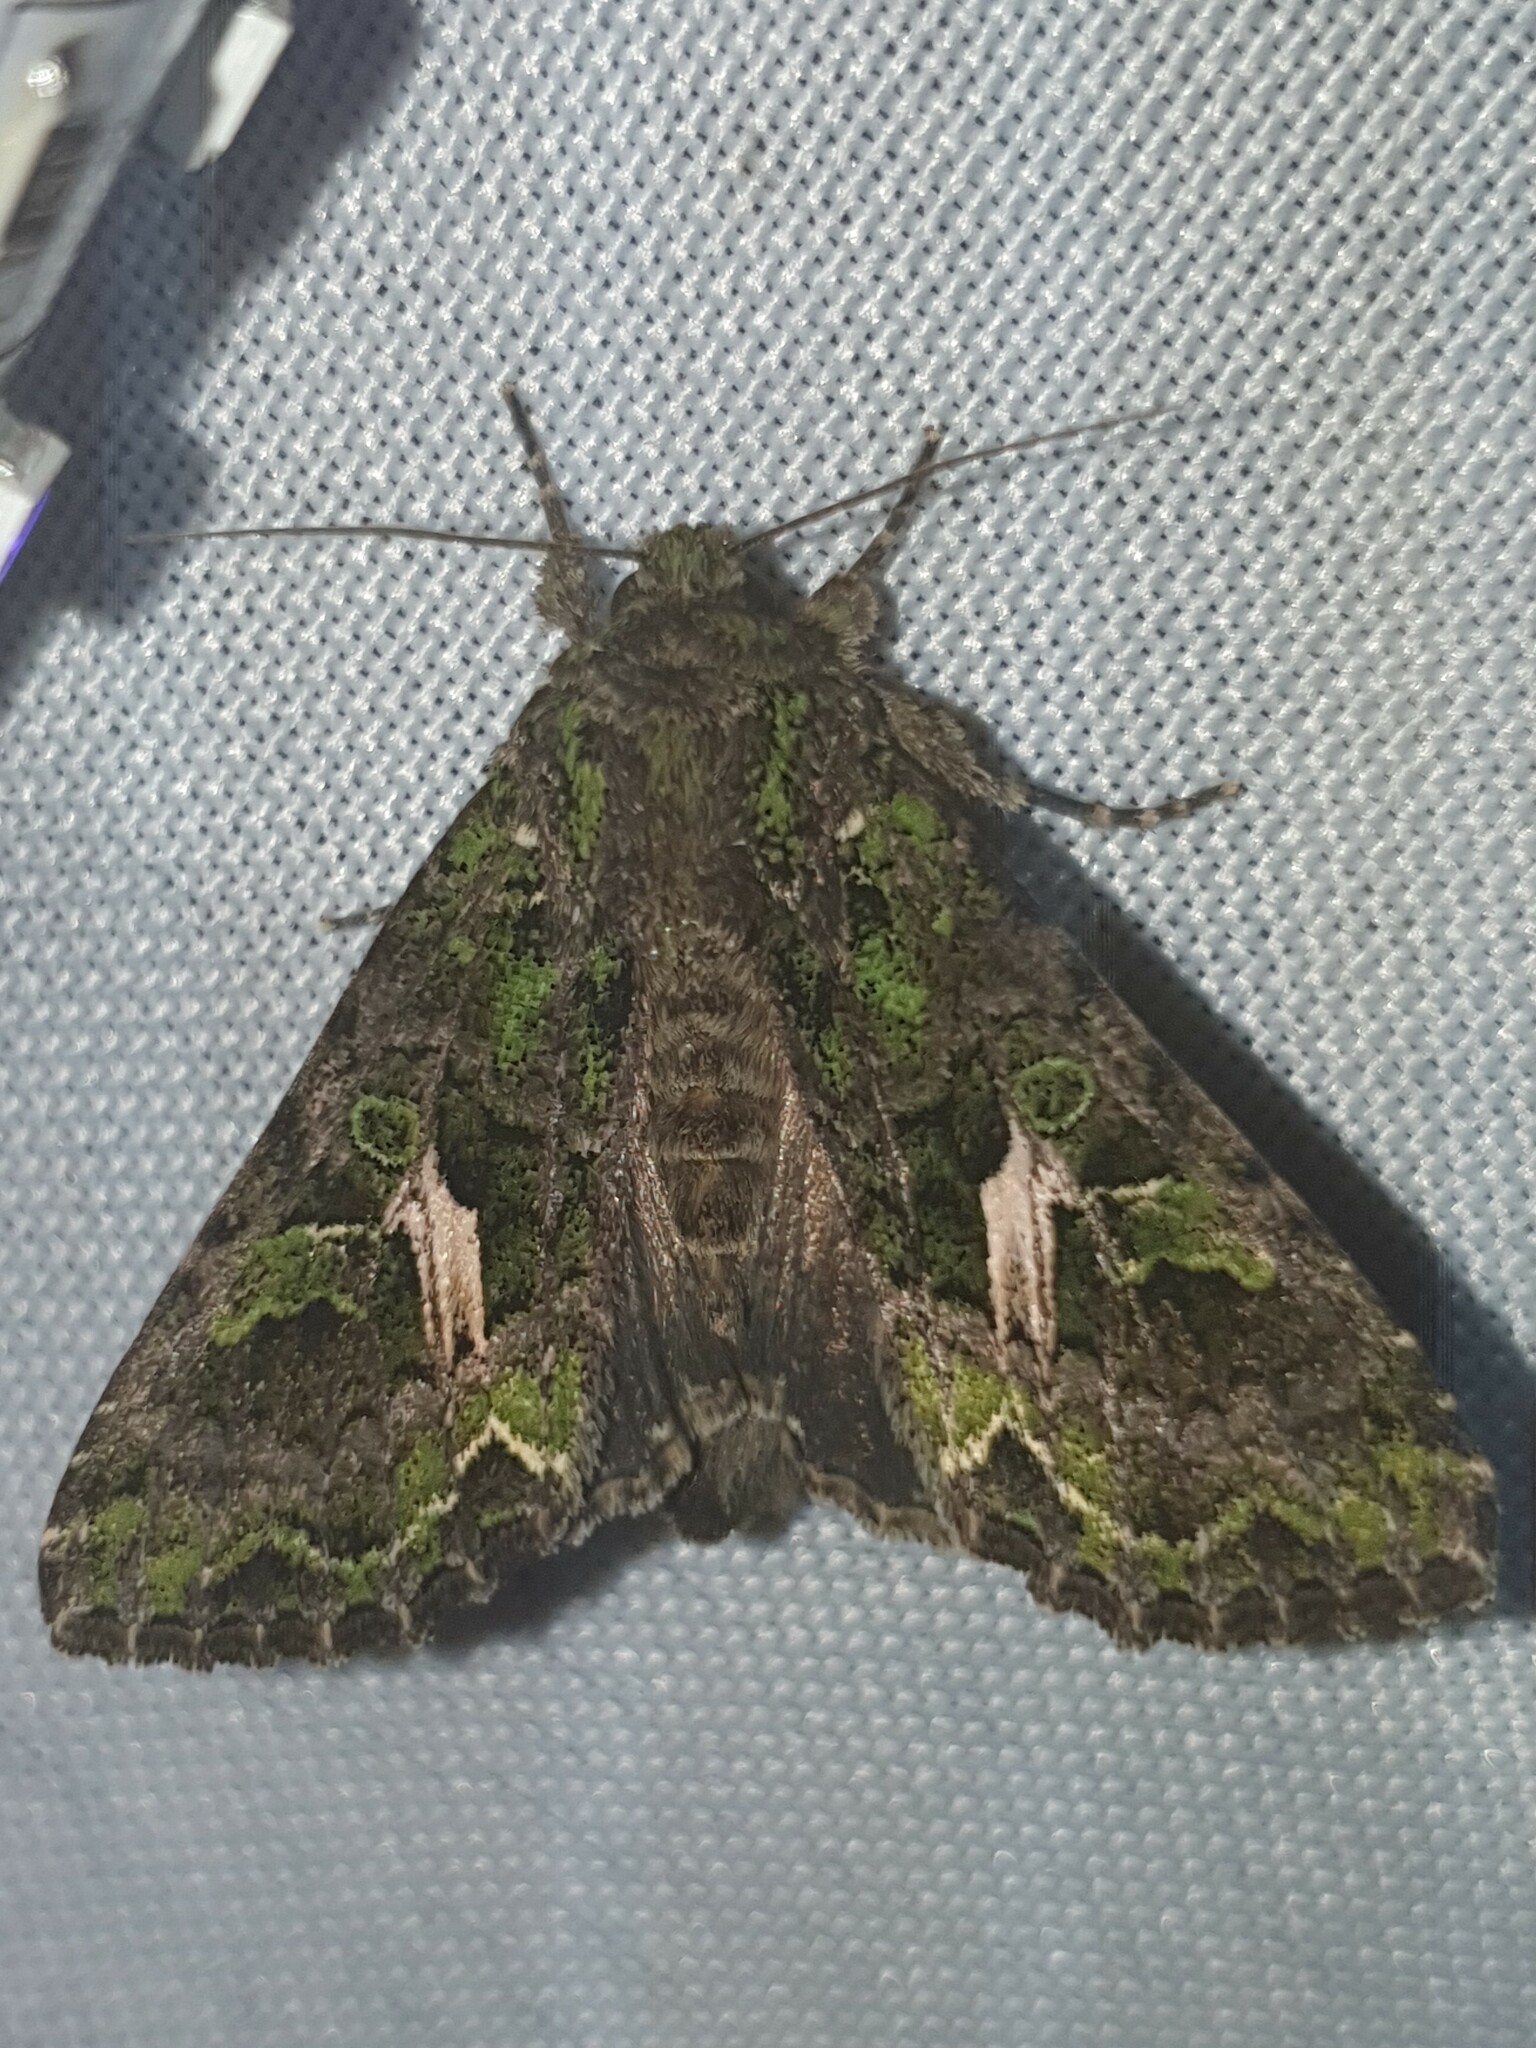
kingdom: Animalia
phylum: Arthropoda
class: Insecta
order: Lepidoptera
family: Noctuidae
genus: Trachea
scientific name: Trachea atriplicis
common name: Orache moth
